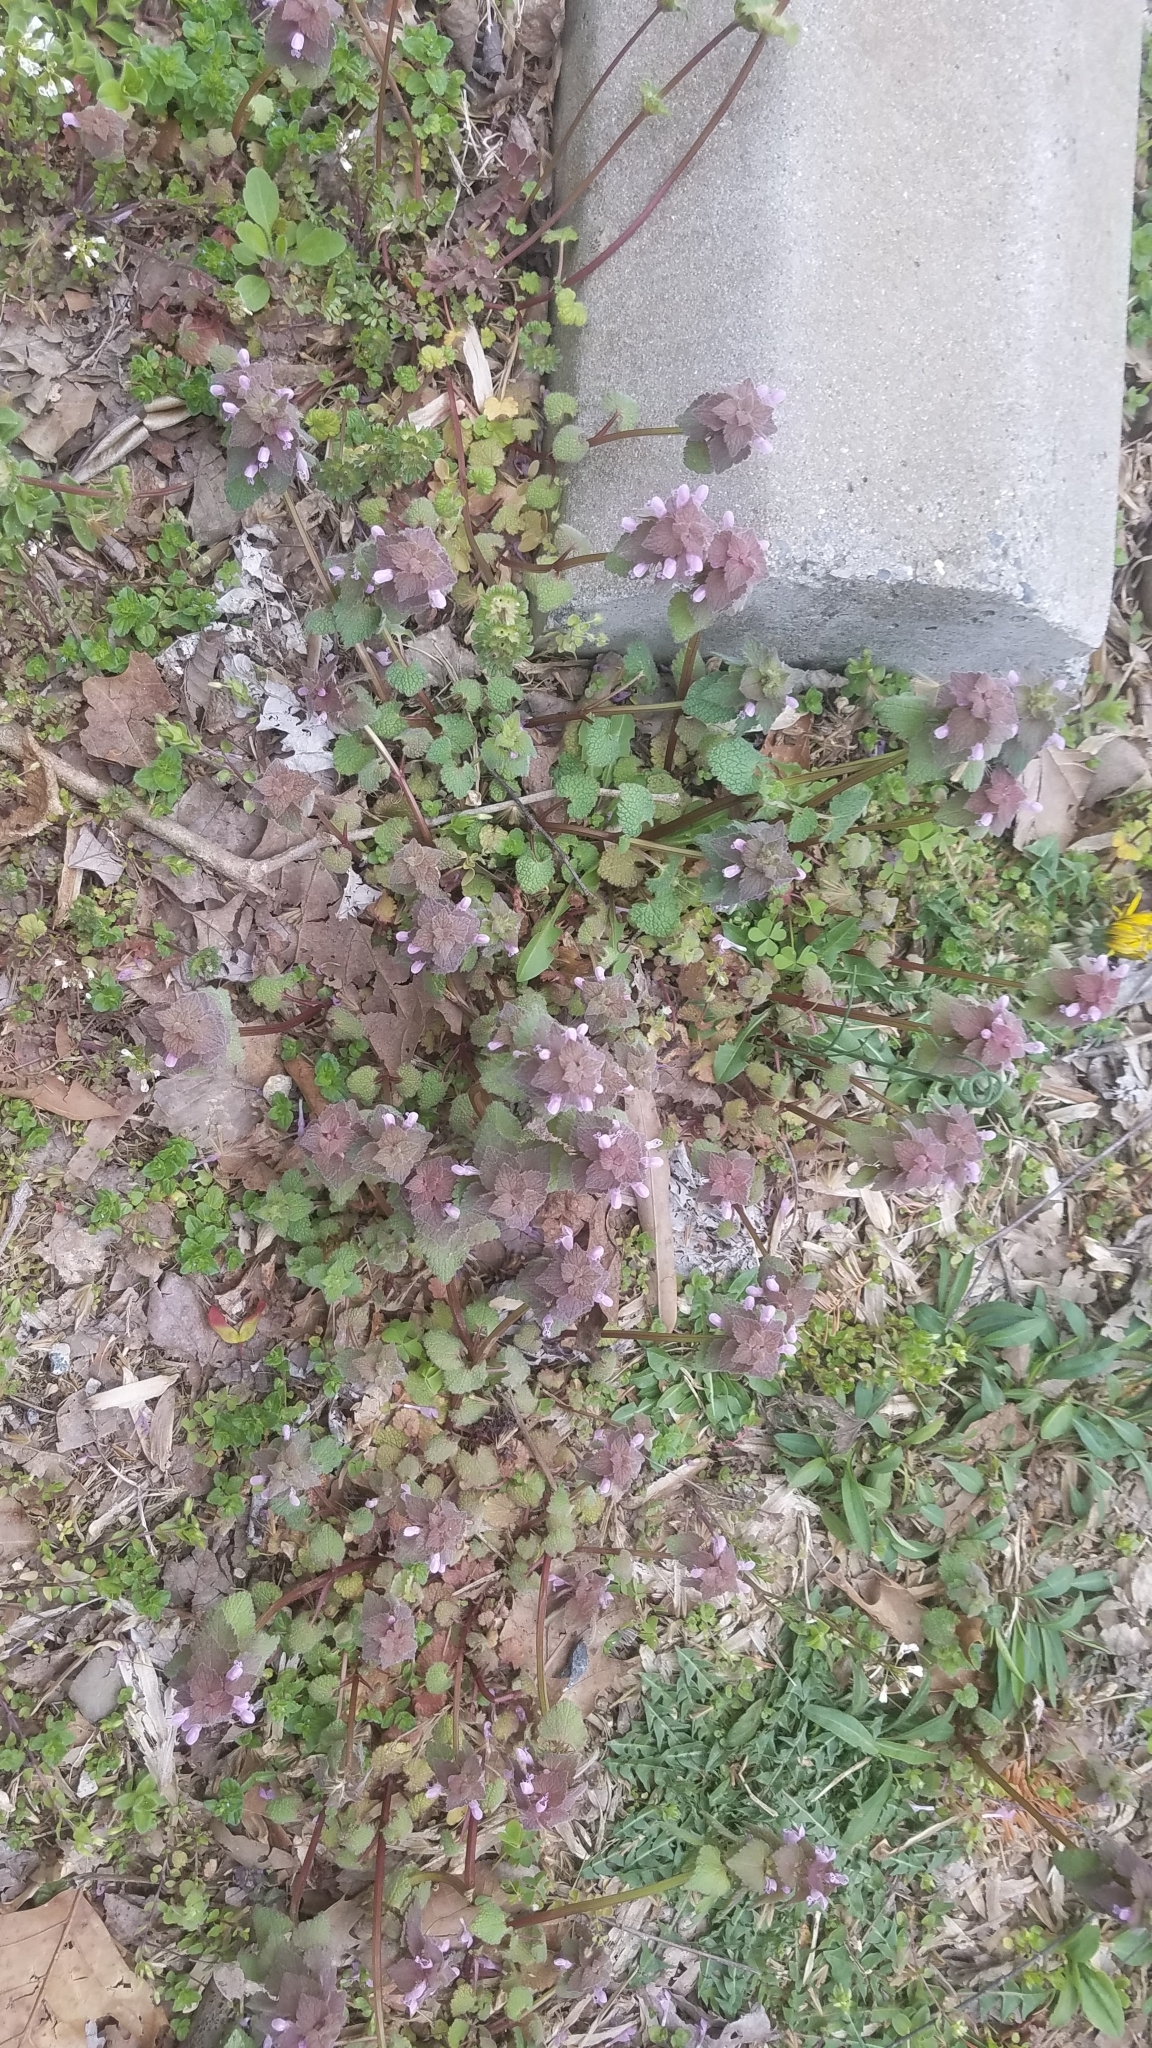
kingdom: Plantae
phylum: Tracheophyta
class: Magnoliopsida
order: Lamiales
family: Lamiaceae
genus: Lamium
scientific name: Lamium purpureum
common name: Red dead-nettle
